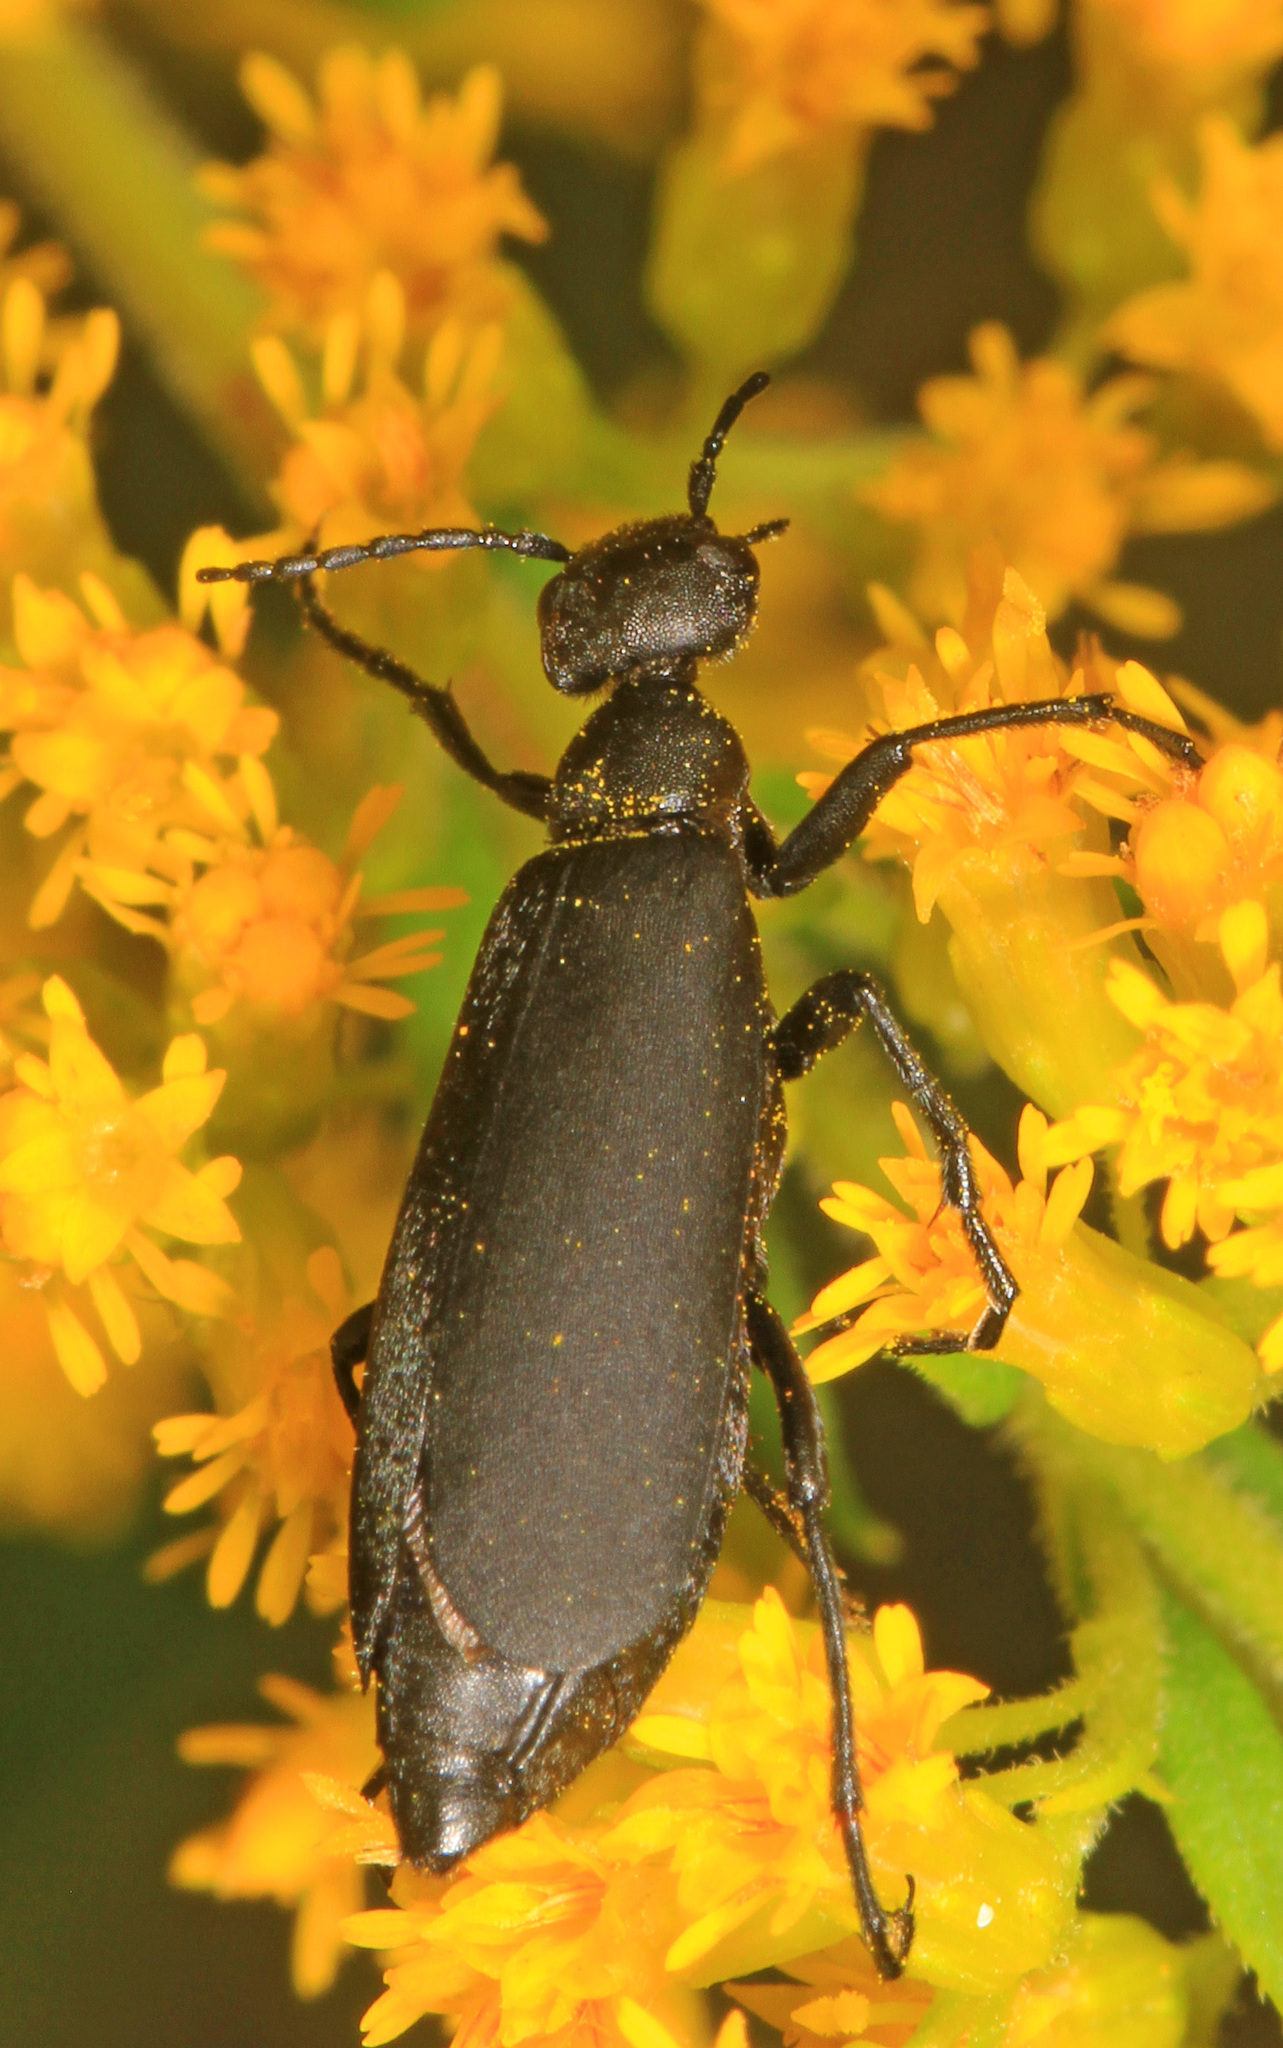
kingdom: Animalia
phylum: Arthropoda
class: Insecta
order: Coleoptera
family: Meloidae
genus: Epicauta
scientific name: Epicauta pensylvanica
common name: Black blister beetle
